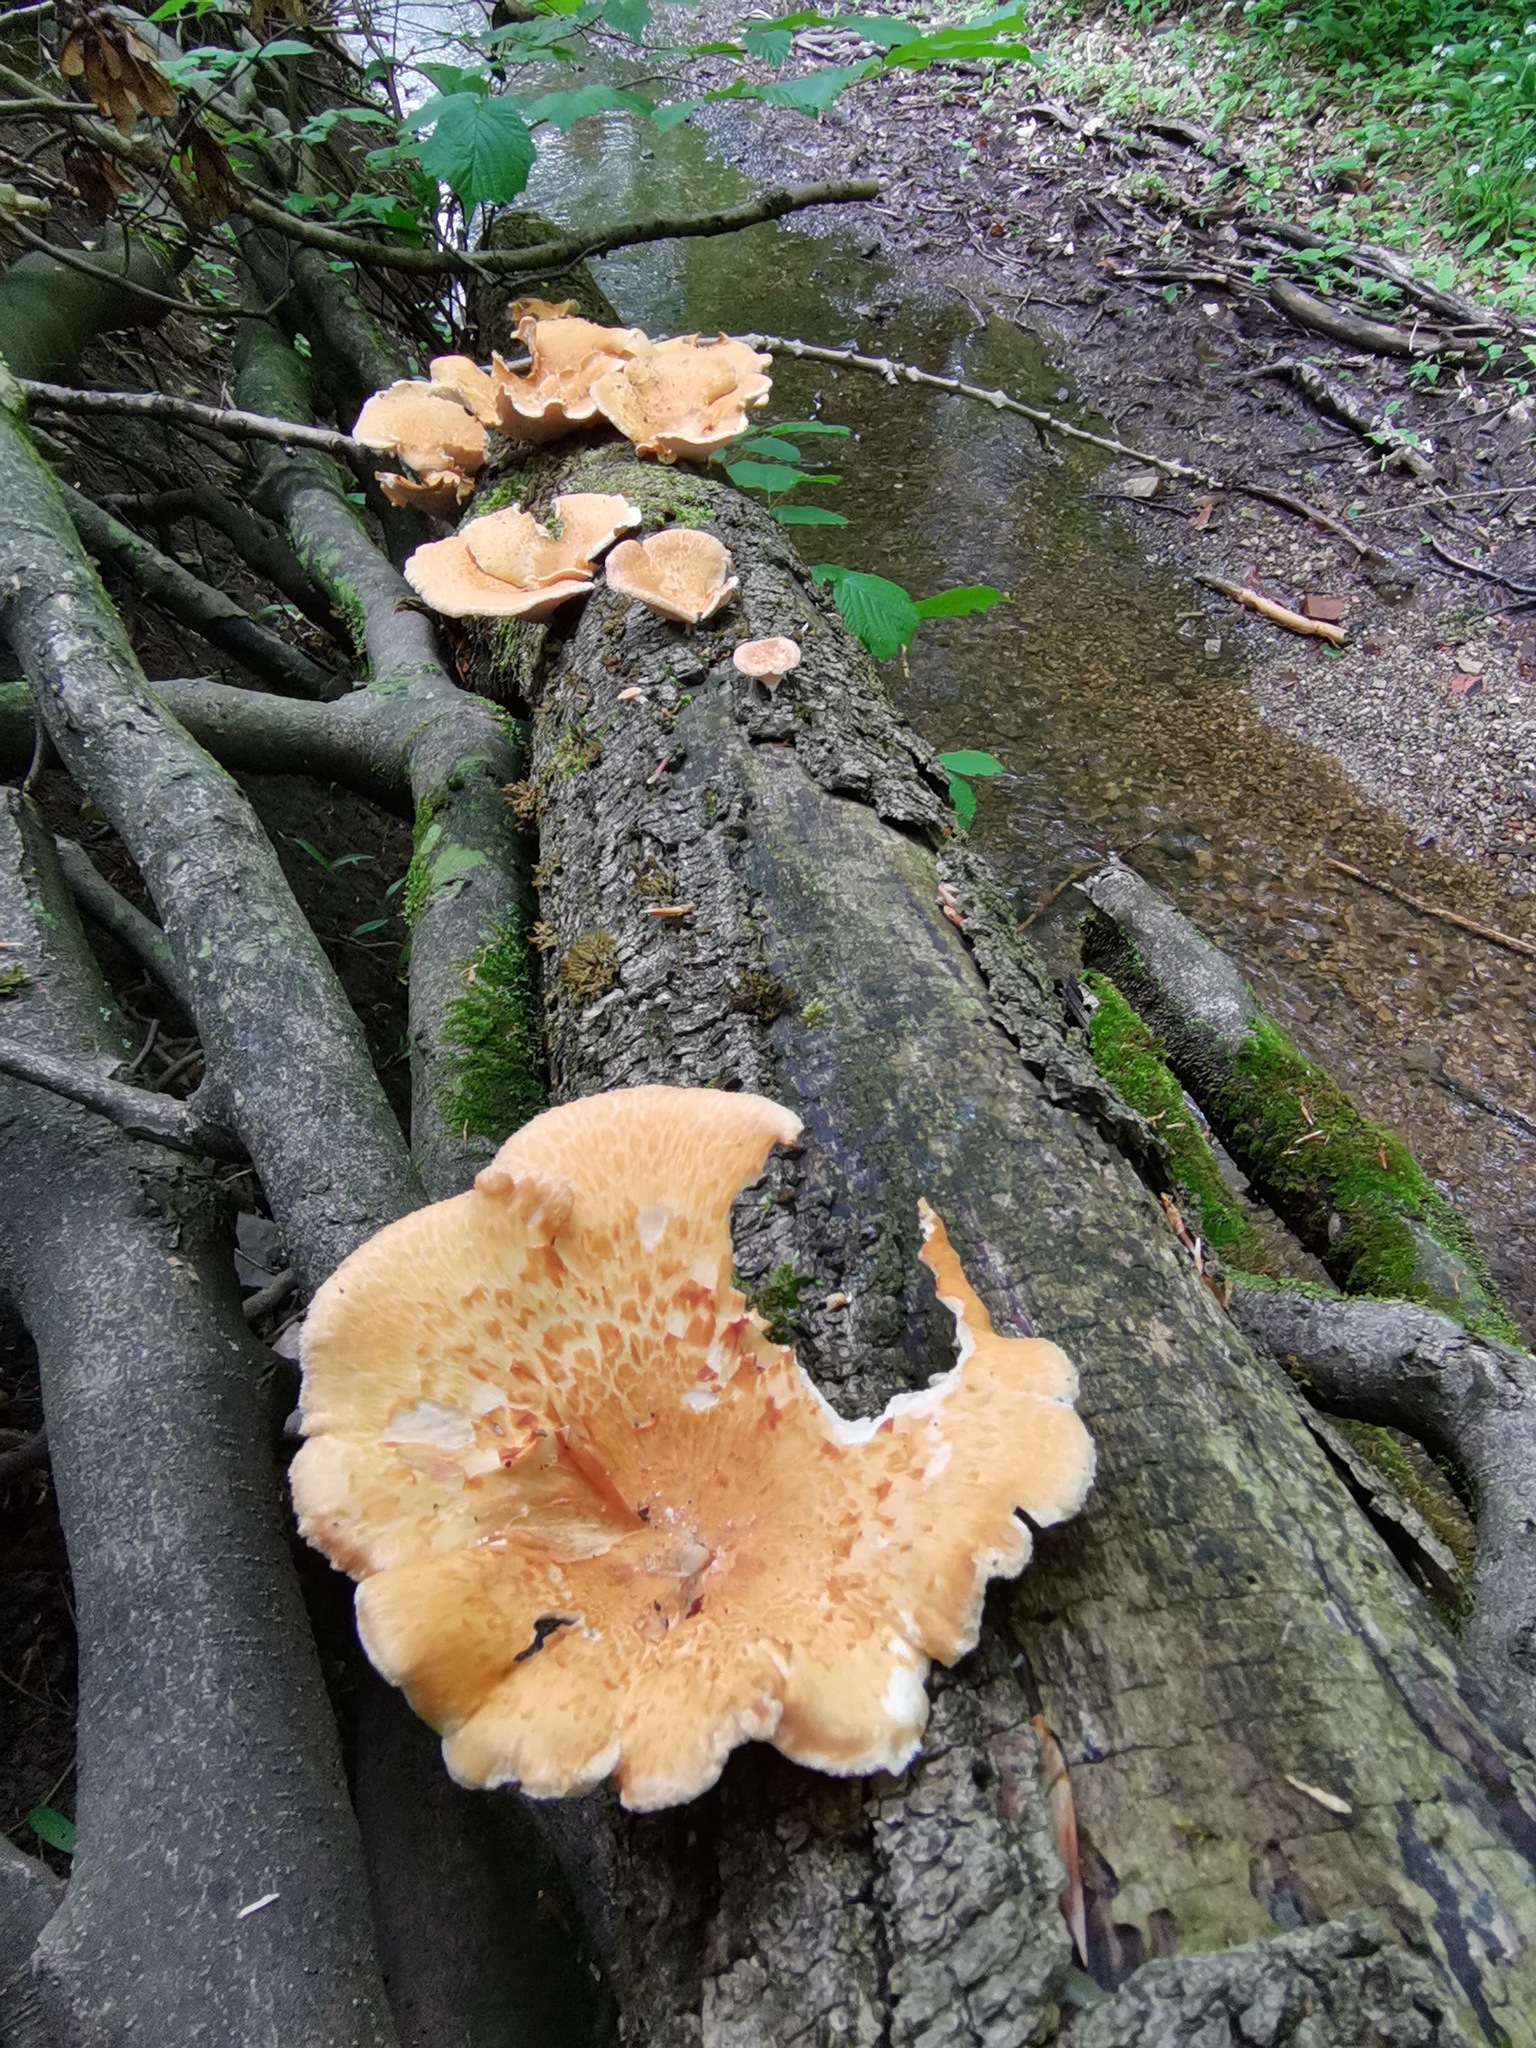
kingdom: Fungi
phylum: Basidiomycota
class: Agaricomycetes
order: Polyporales
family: Polyporaceae
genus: Neofavolus
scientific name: Neofavolus alveolaris
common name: Hexagonal-pored polypore
